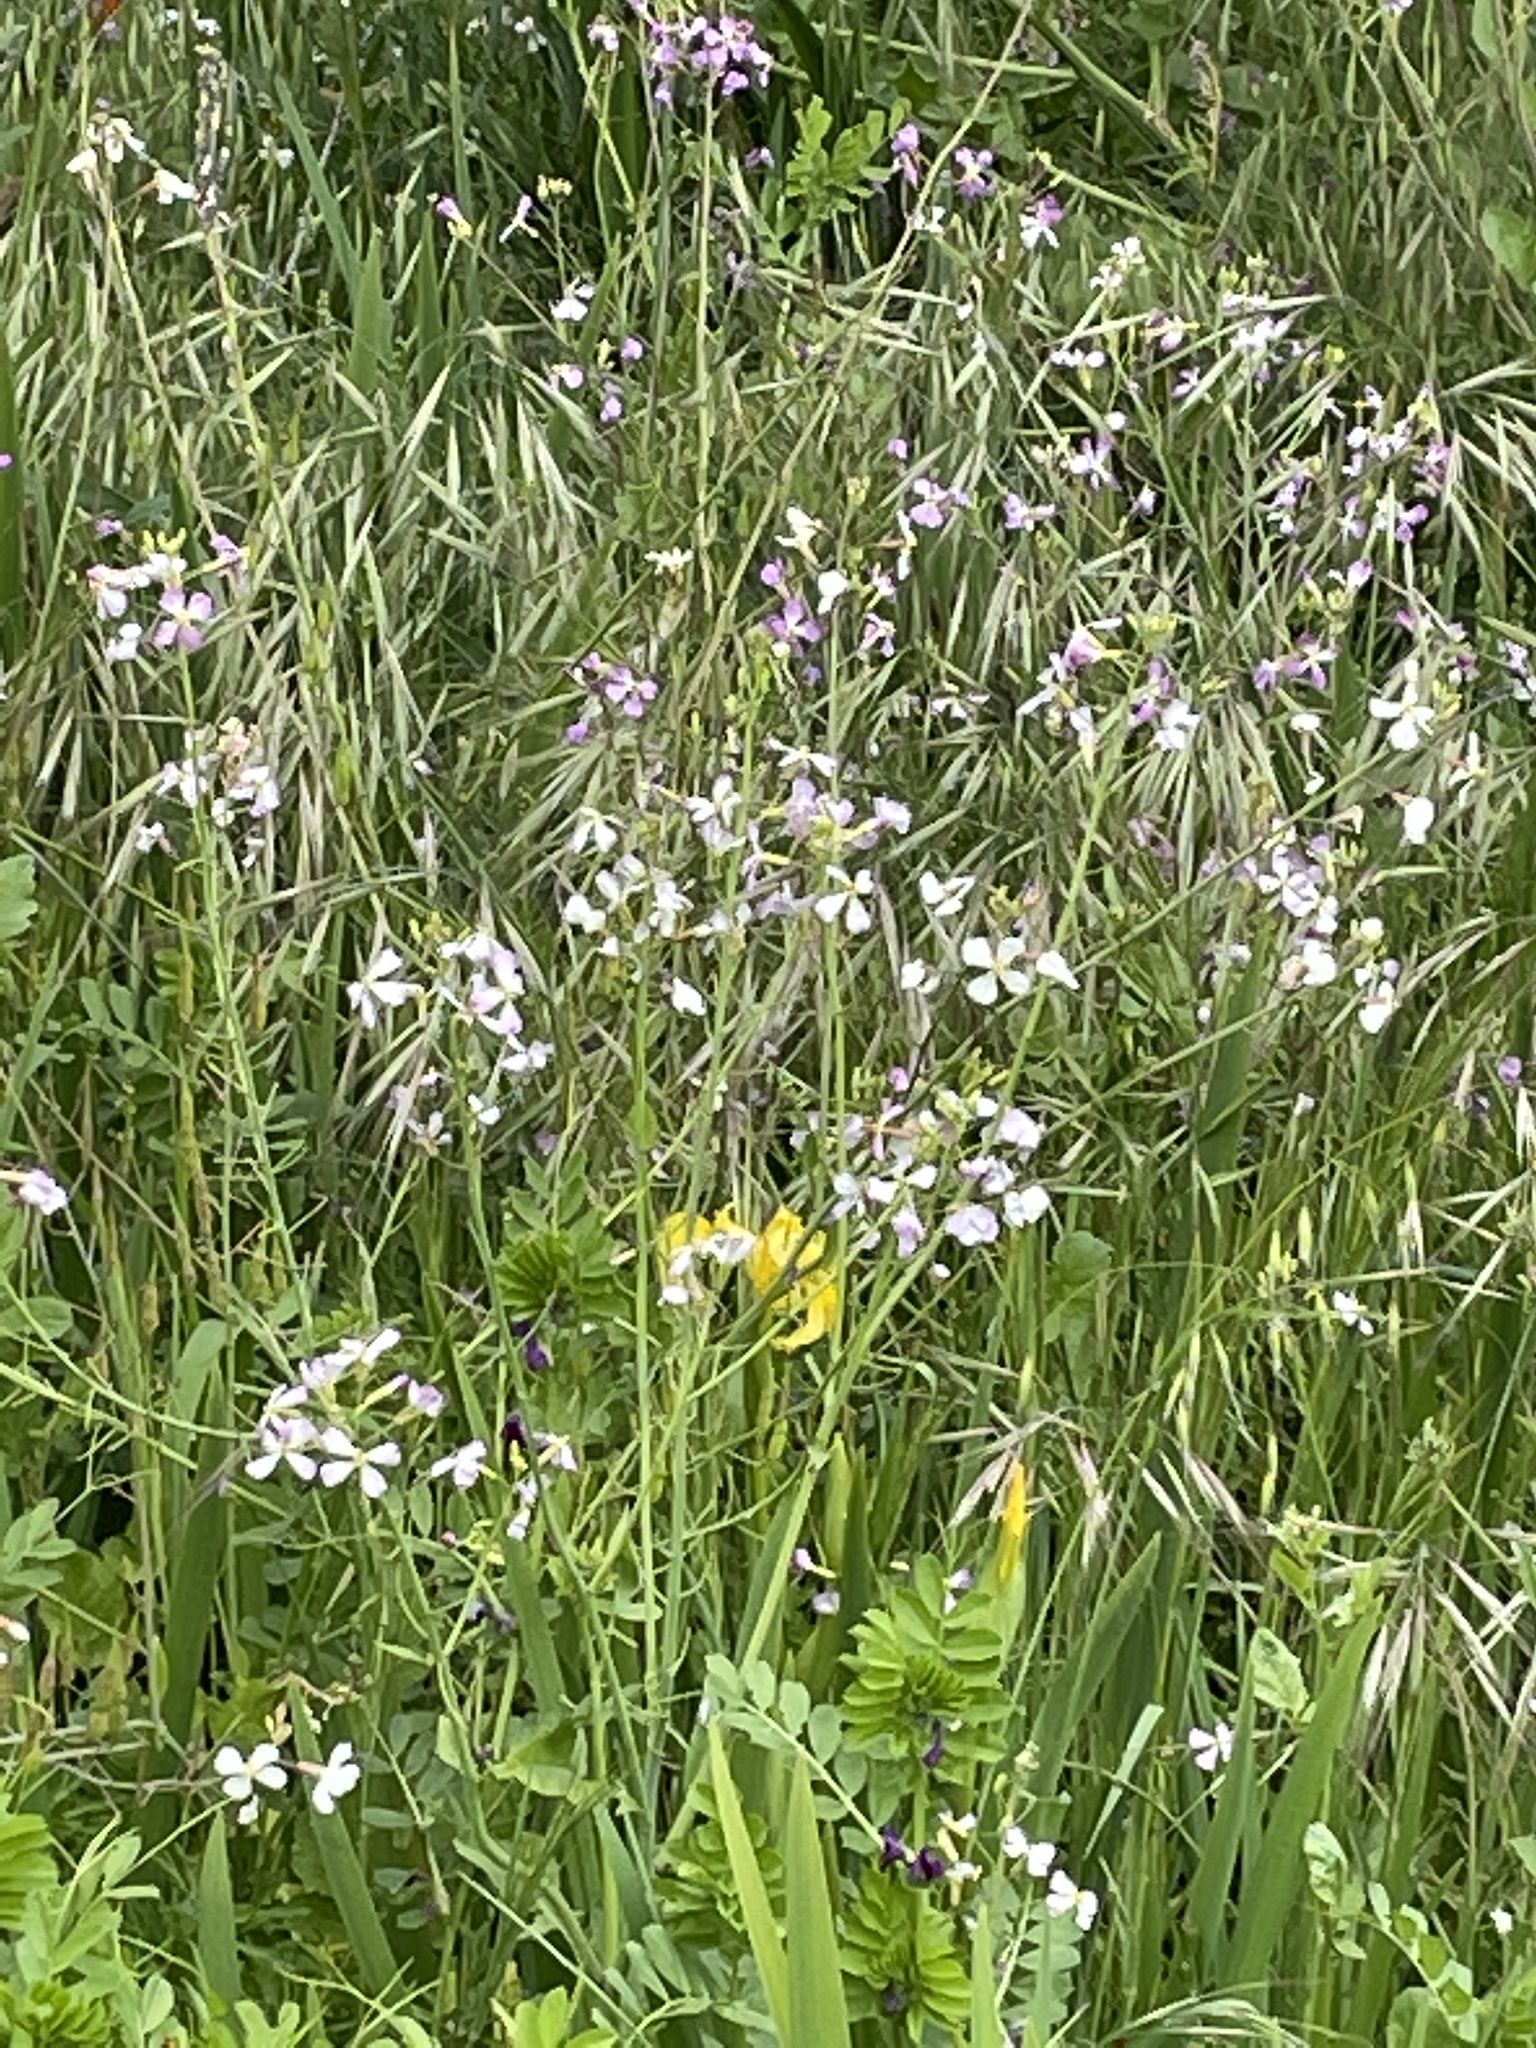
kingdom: Plantae
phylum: Tracheophyta
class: Liliopsida
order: Asparagales
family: Iridaceae
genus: Iris
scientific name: Iris pseudacorus
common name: Yellow flag
